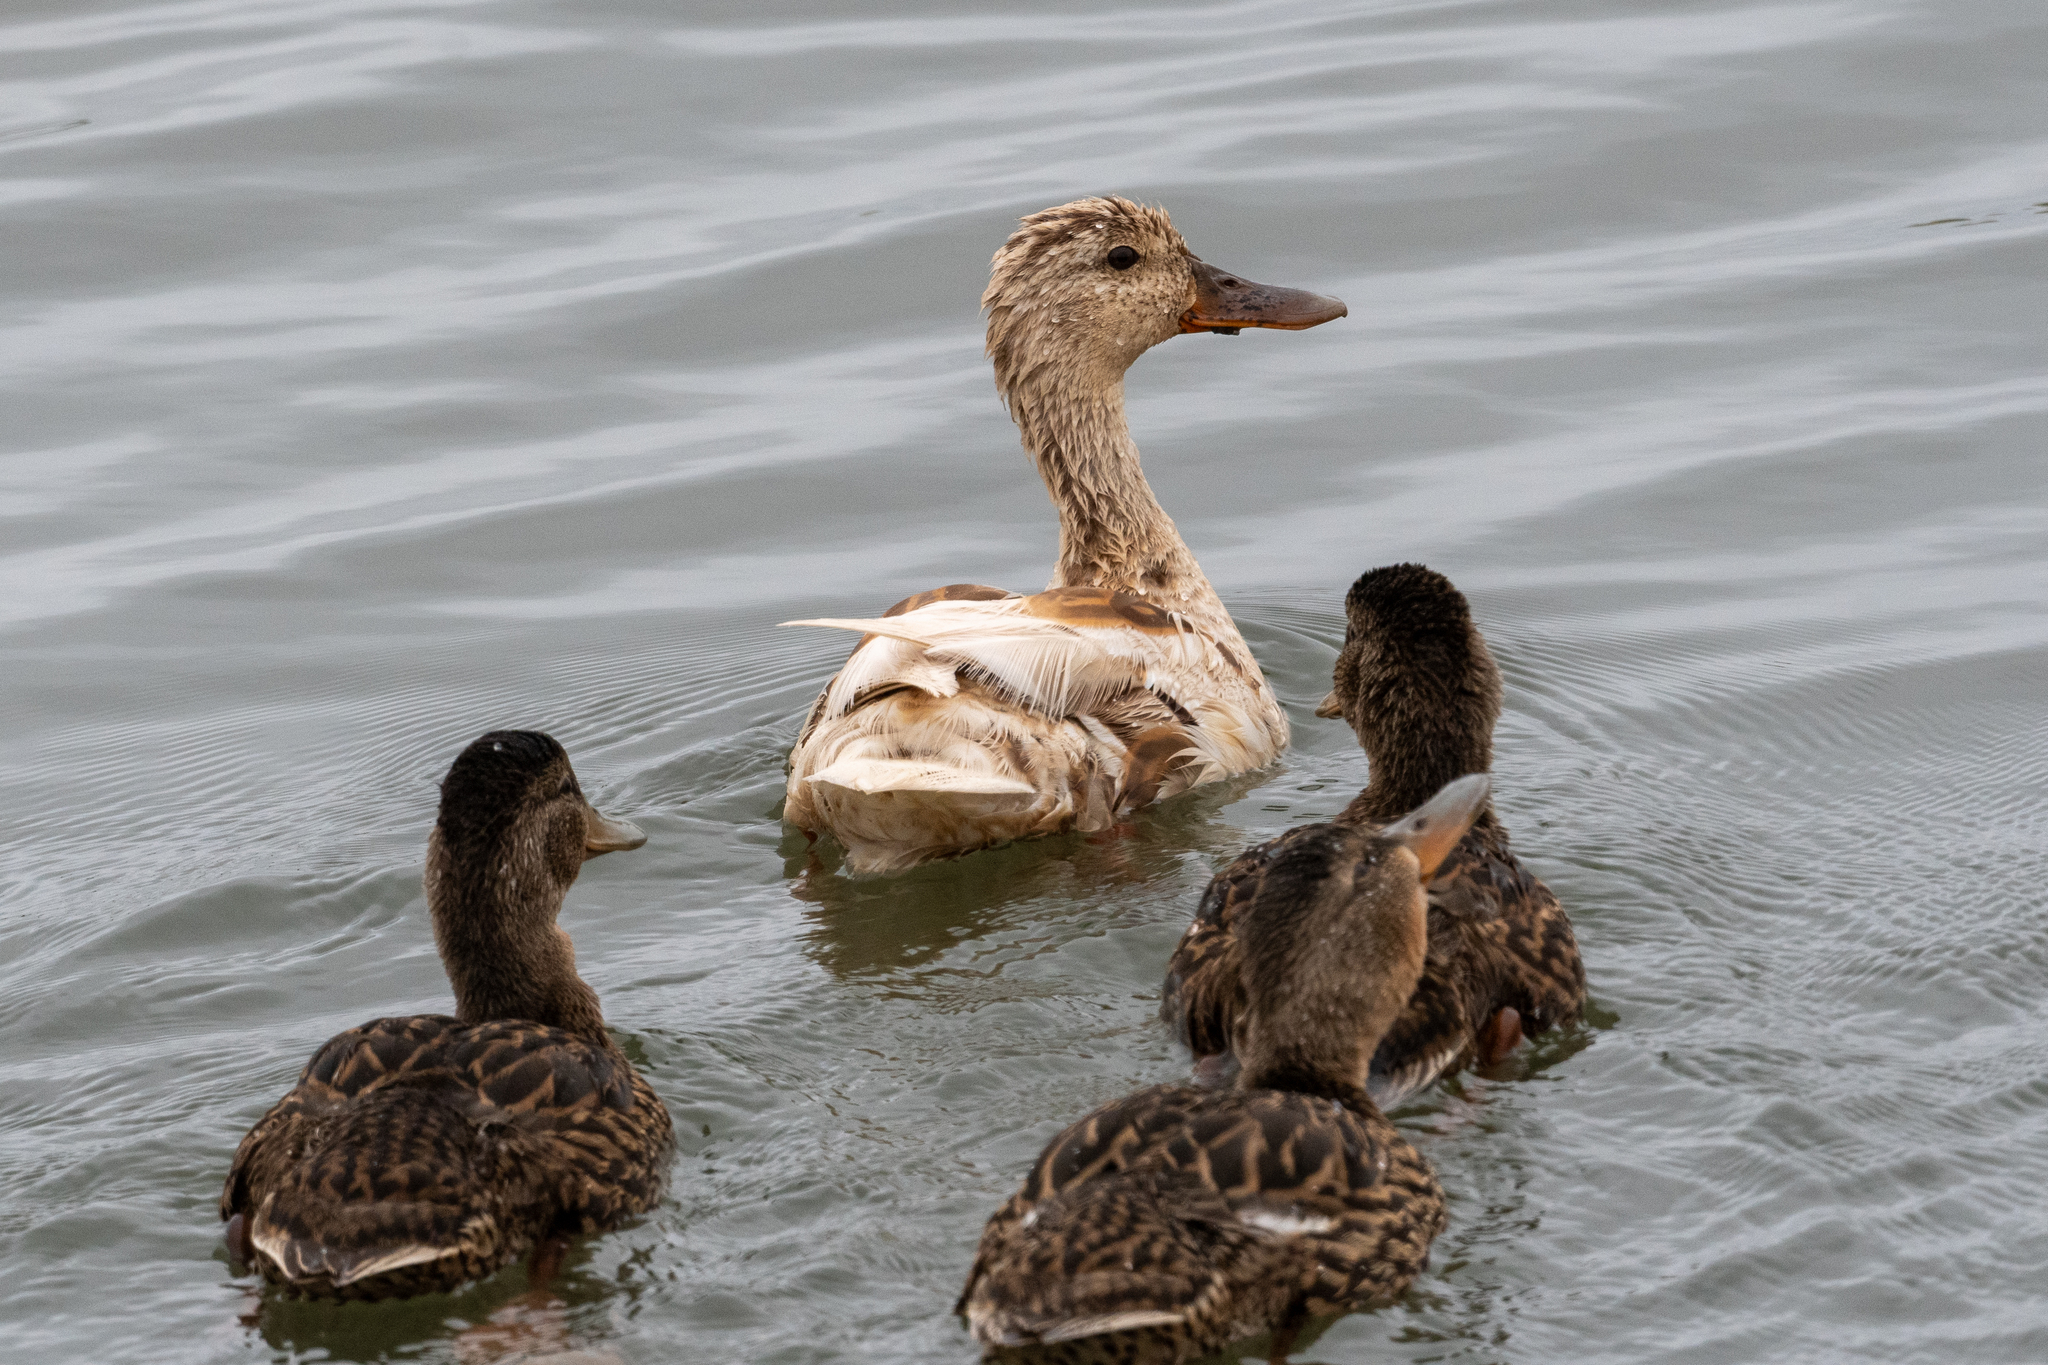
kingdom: Animalia
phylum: Chordata
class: Aves
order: Anseriformes
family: Anatidae
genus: Anas
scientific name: Anas platyrhynchos
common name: Mallard
